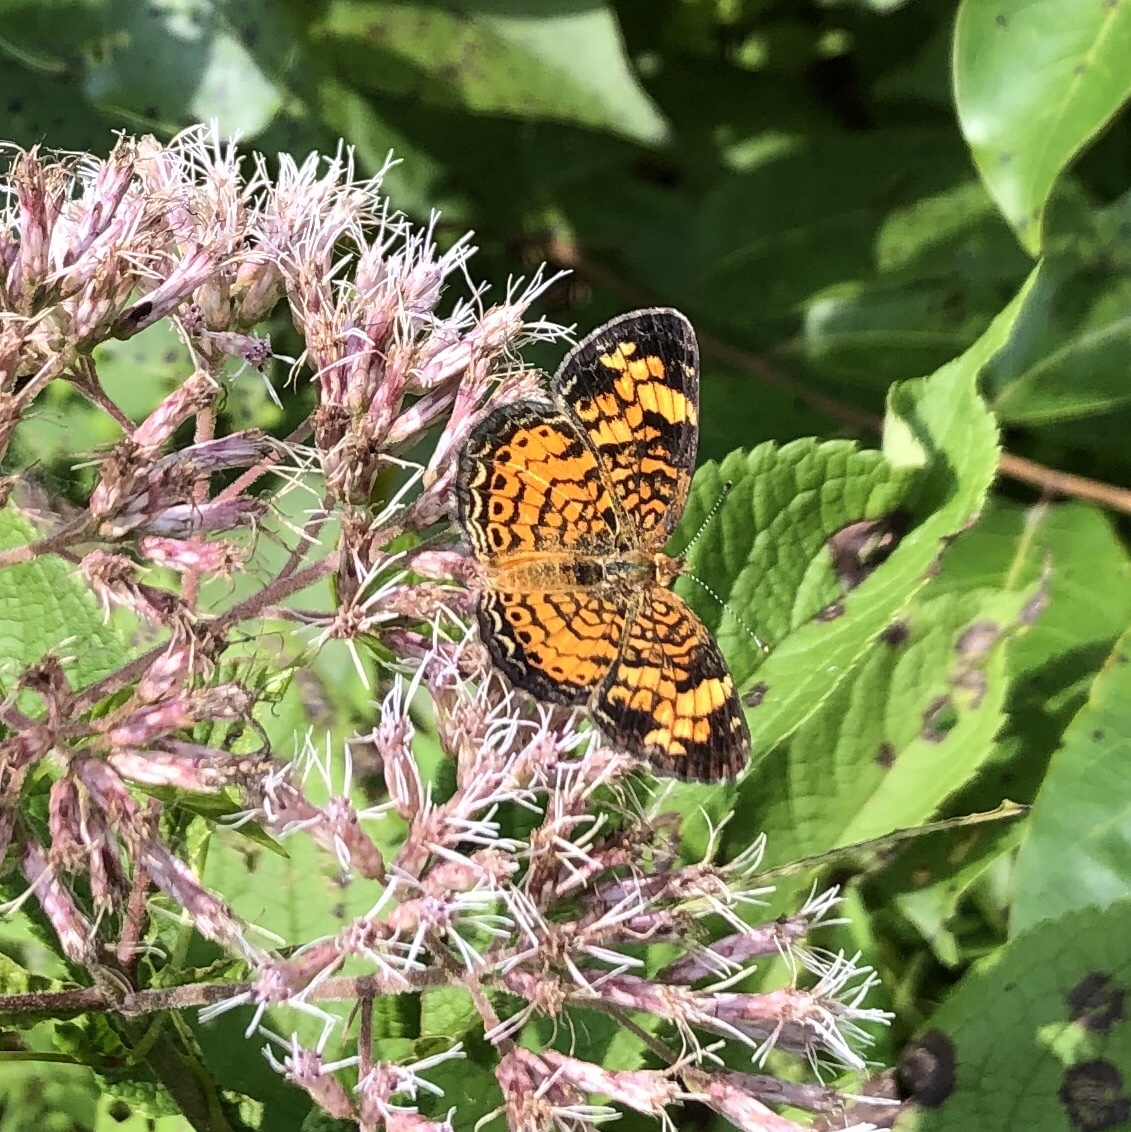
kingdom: Animalia
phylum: Arthropoda
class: Insecta
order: Lepidoptera
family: Nymphalidae
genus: Phyciodes
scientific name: Phyciodes tharos
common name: Pearl crescent
